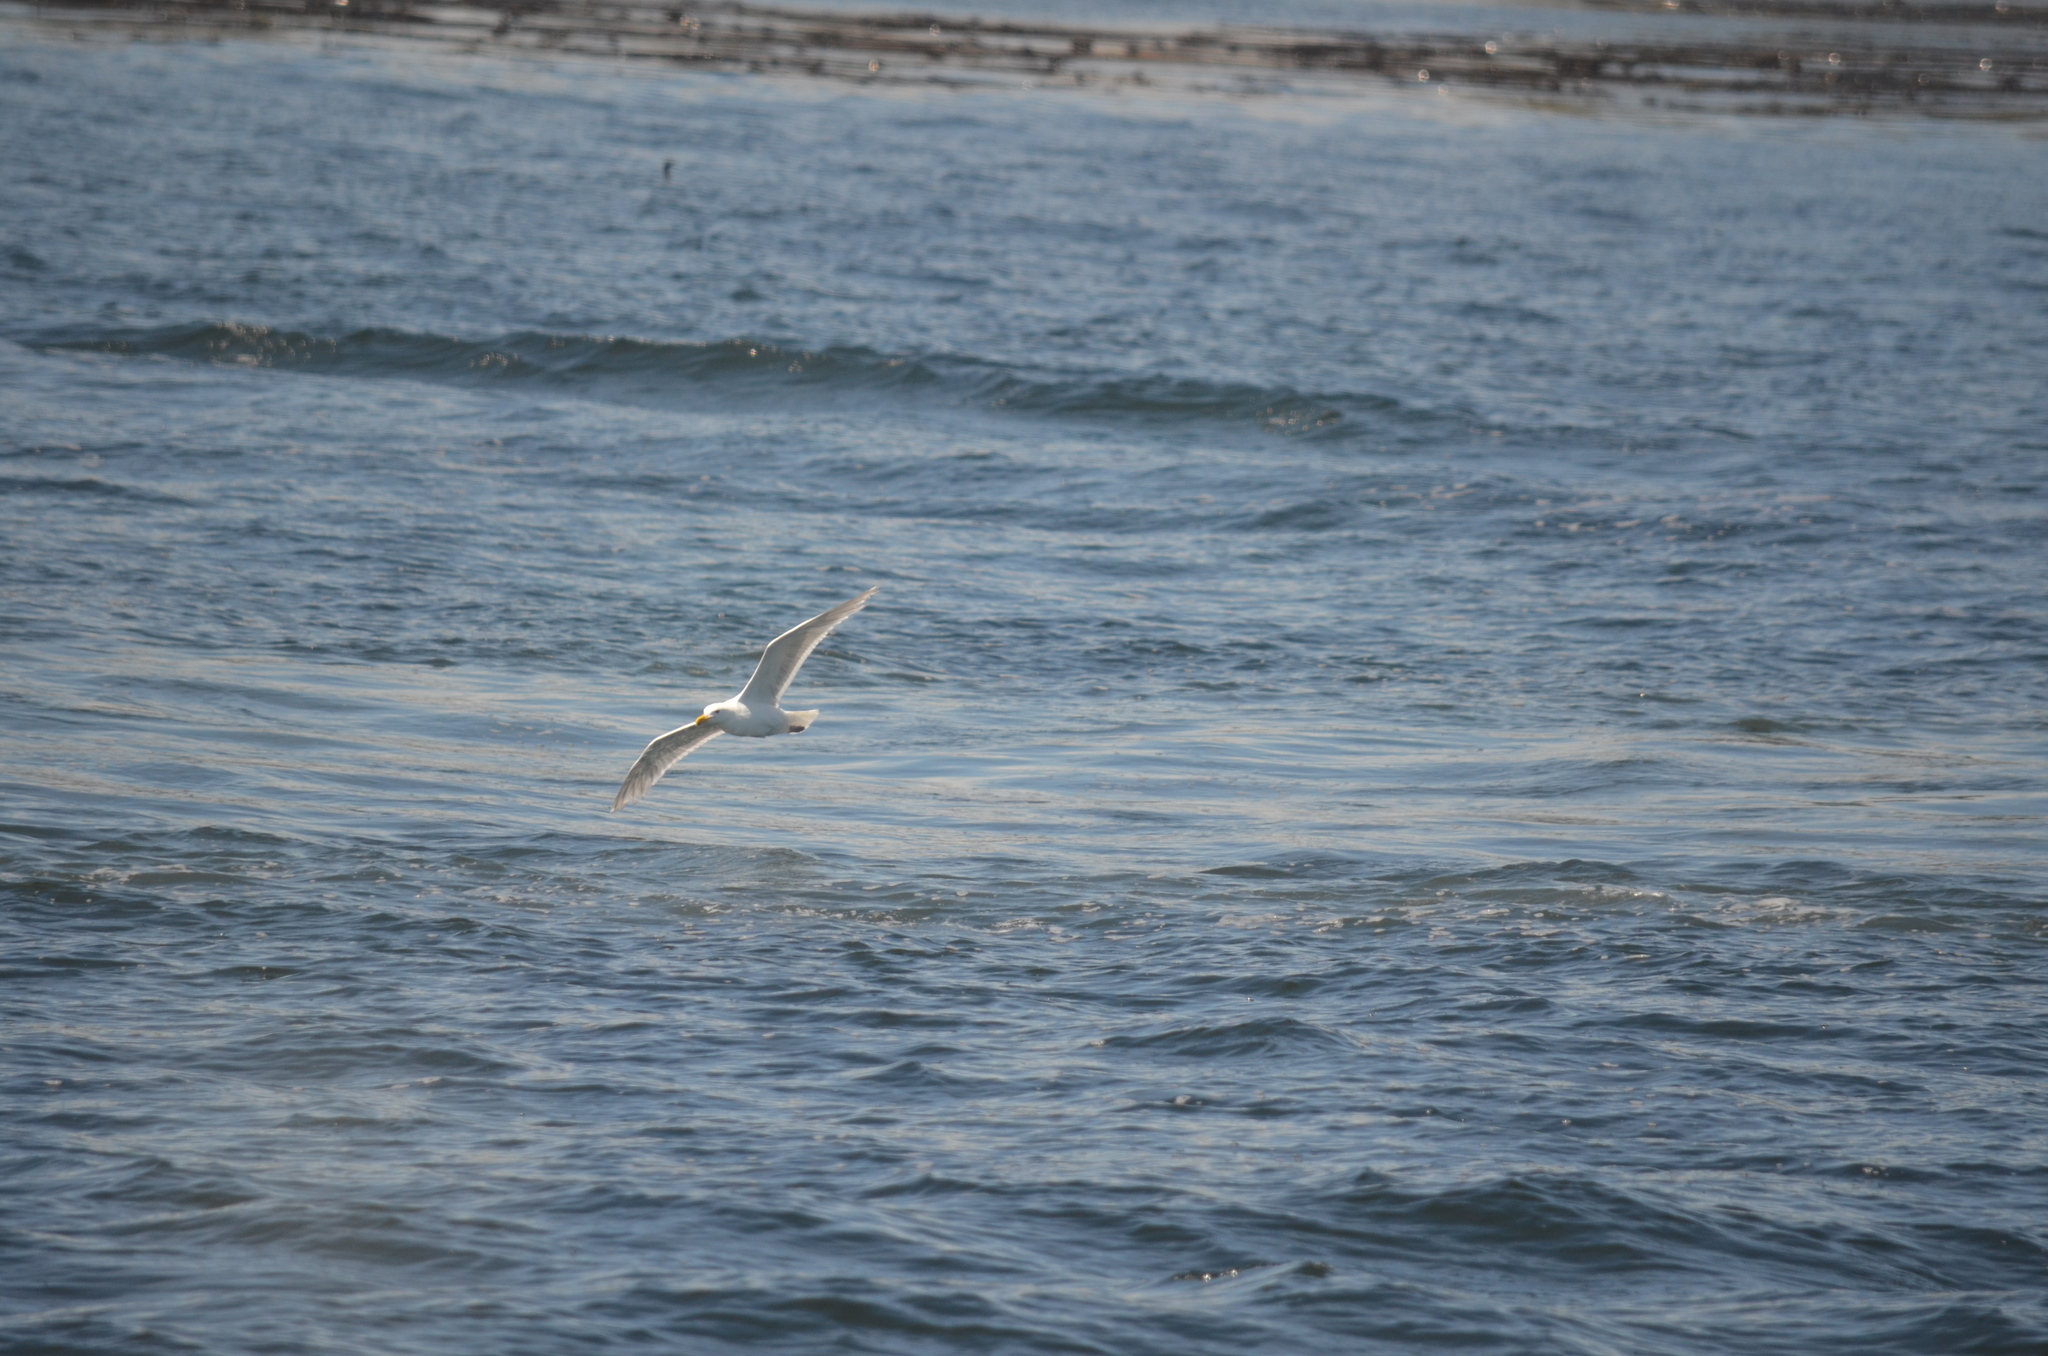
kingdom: Animalia
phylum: Chordata
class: Aves
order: Charadriiformes
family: Laridae
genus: Larus
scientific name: Larus glaucescens
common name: Glaucous-winged gull
